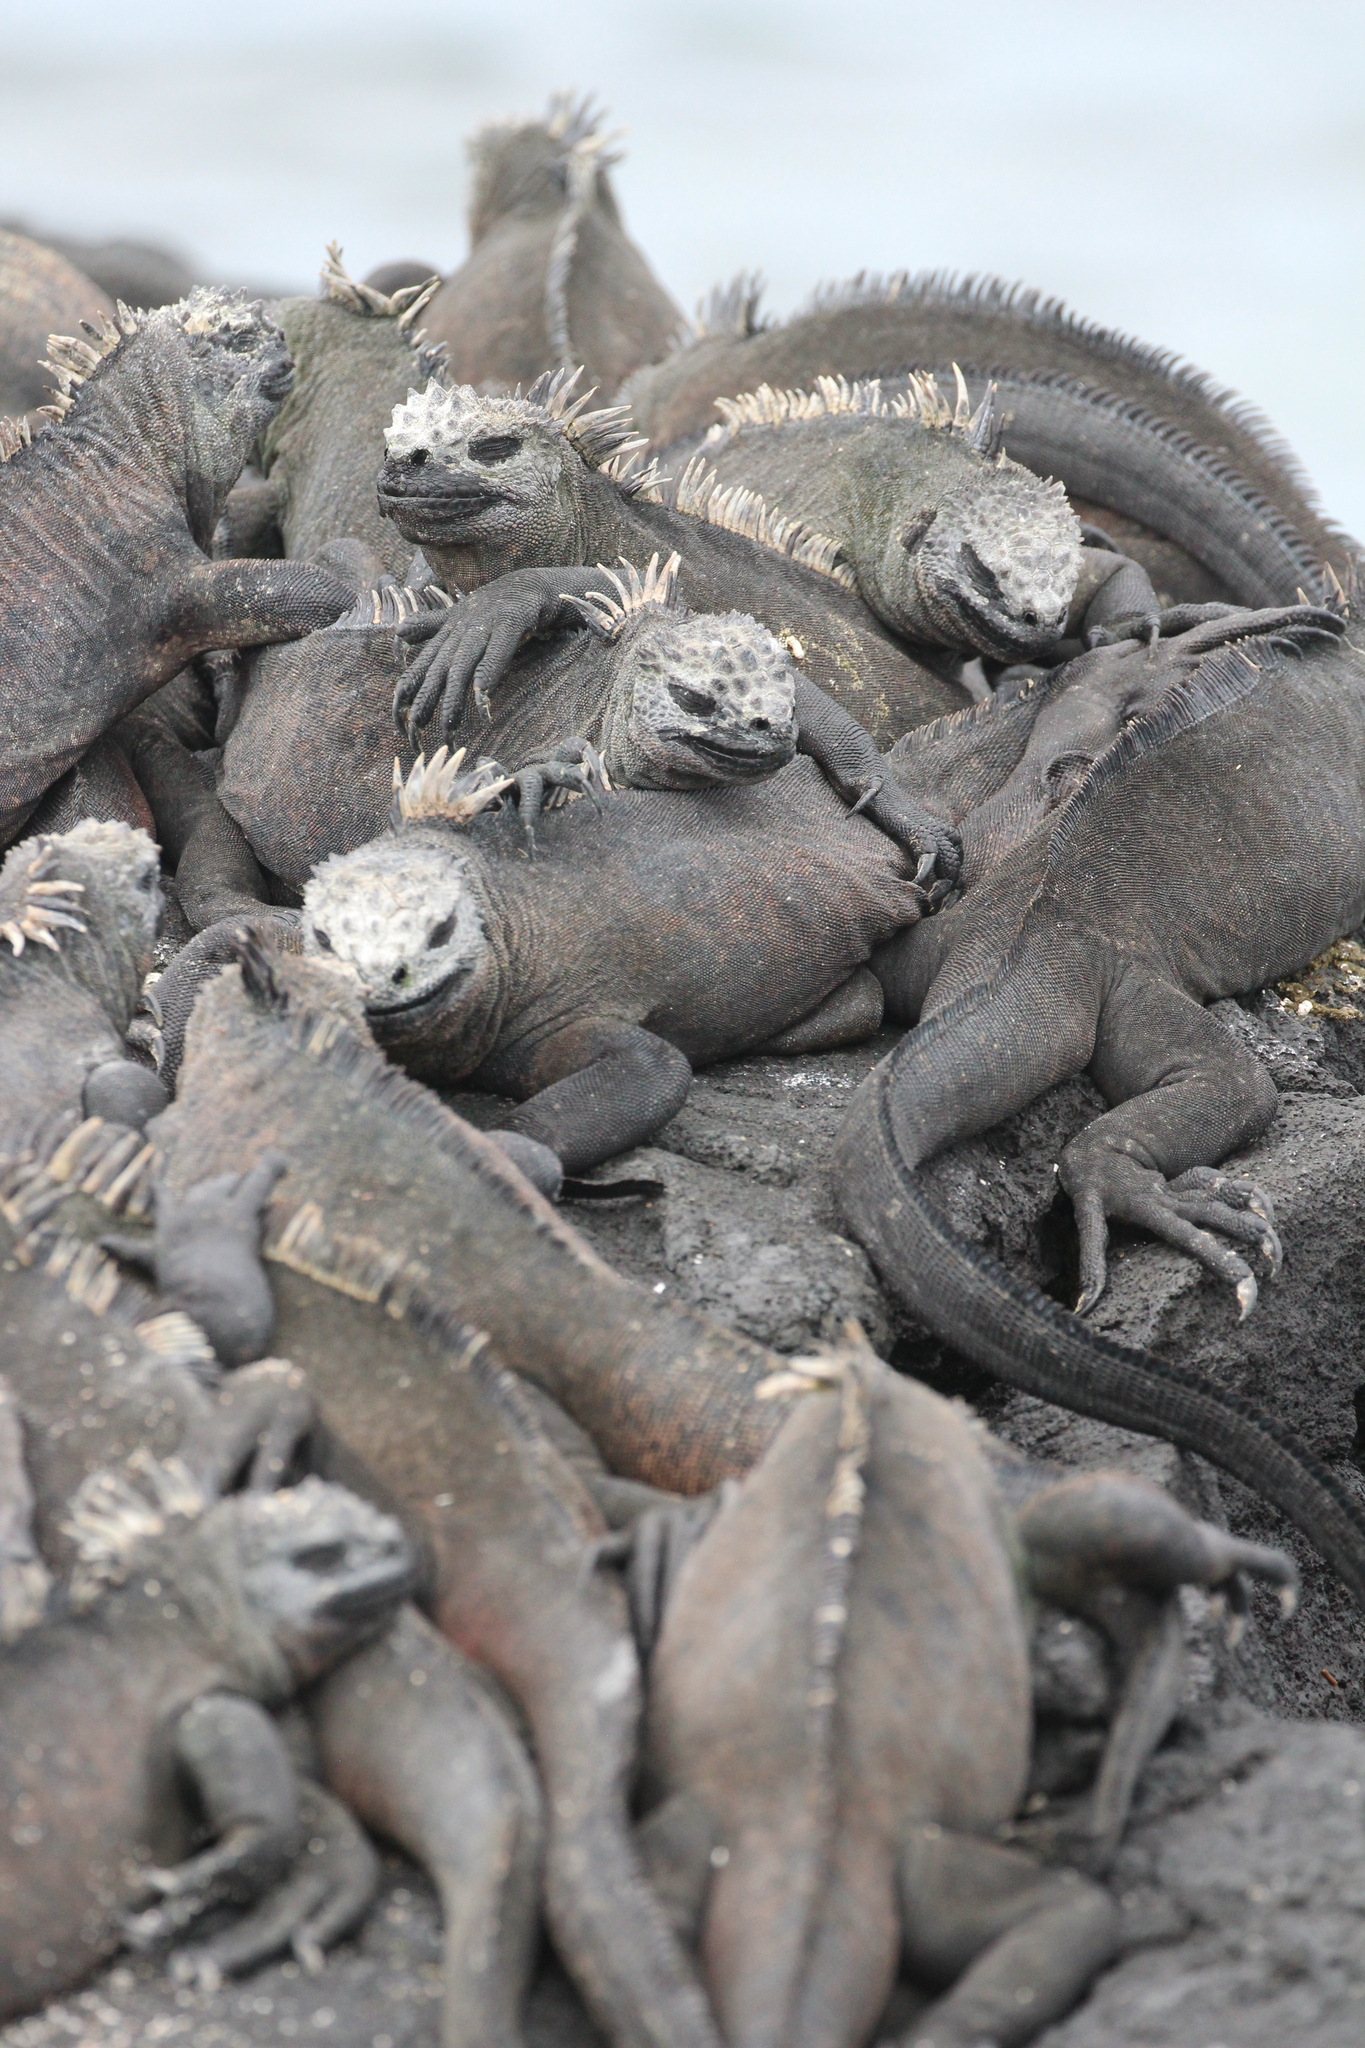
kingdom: Animalia
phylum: Chordata
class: Squamata
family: Iguanidae
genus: Amblyrhynchus
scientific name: Amblyrhynchus cristatus
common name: Marine iguana
